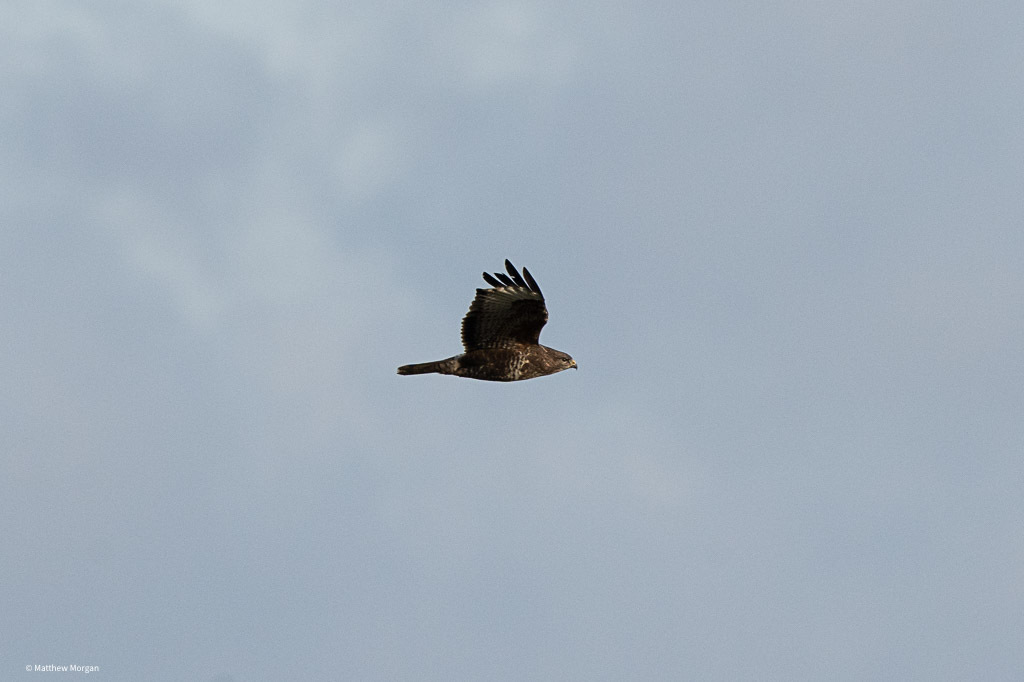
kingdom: Animalia
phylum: Chordata
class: Aves
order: Accipitriformes
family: Accipitridae
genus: Buteo
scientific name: Buteo buteo
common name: Common buzzard
